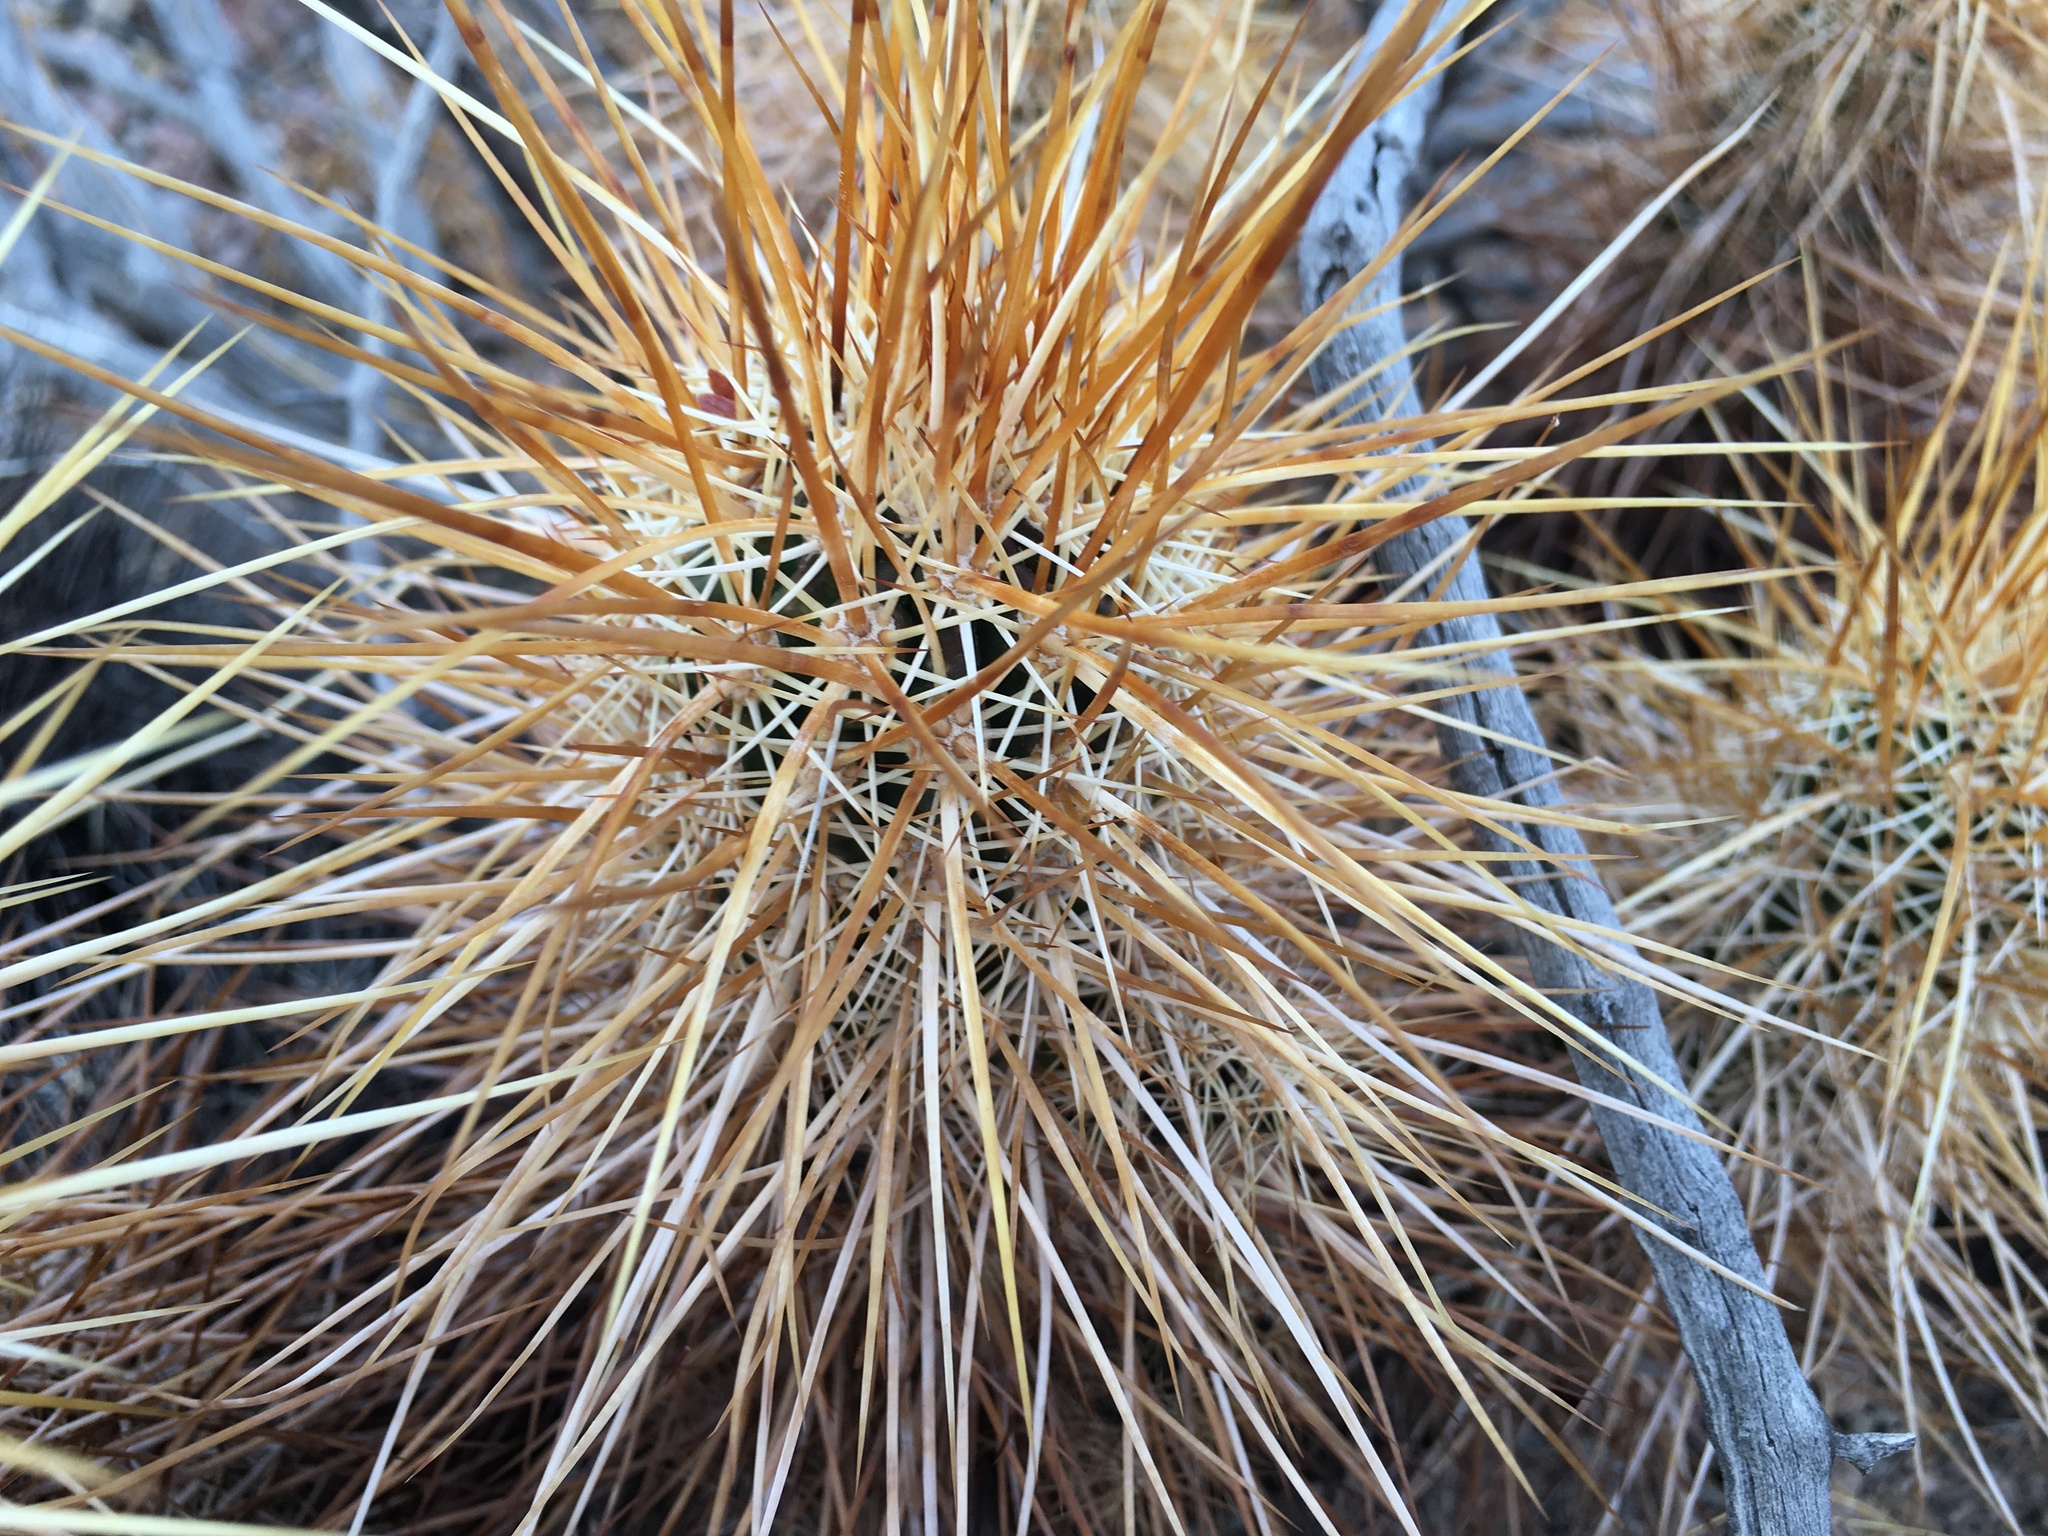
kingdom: Plantae
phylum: Tracheophyta
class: Magnoliopsida
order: Caryophyllales
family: Cactaceae
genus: Echinocereus
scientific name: Echinocereus engelmannii
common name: Engelmann's hedgehog cactus
